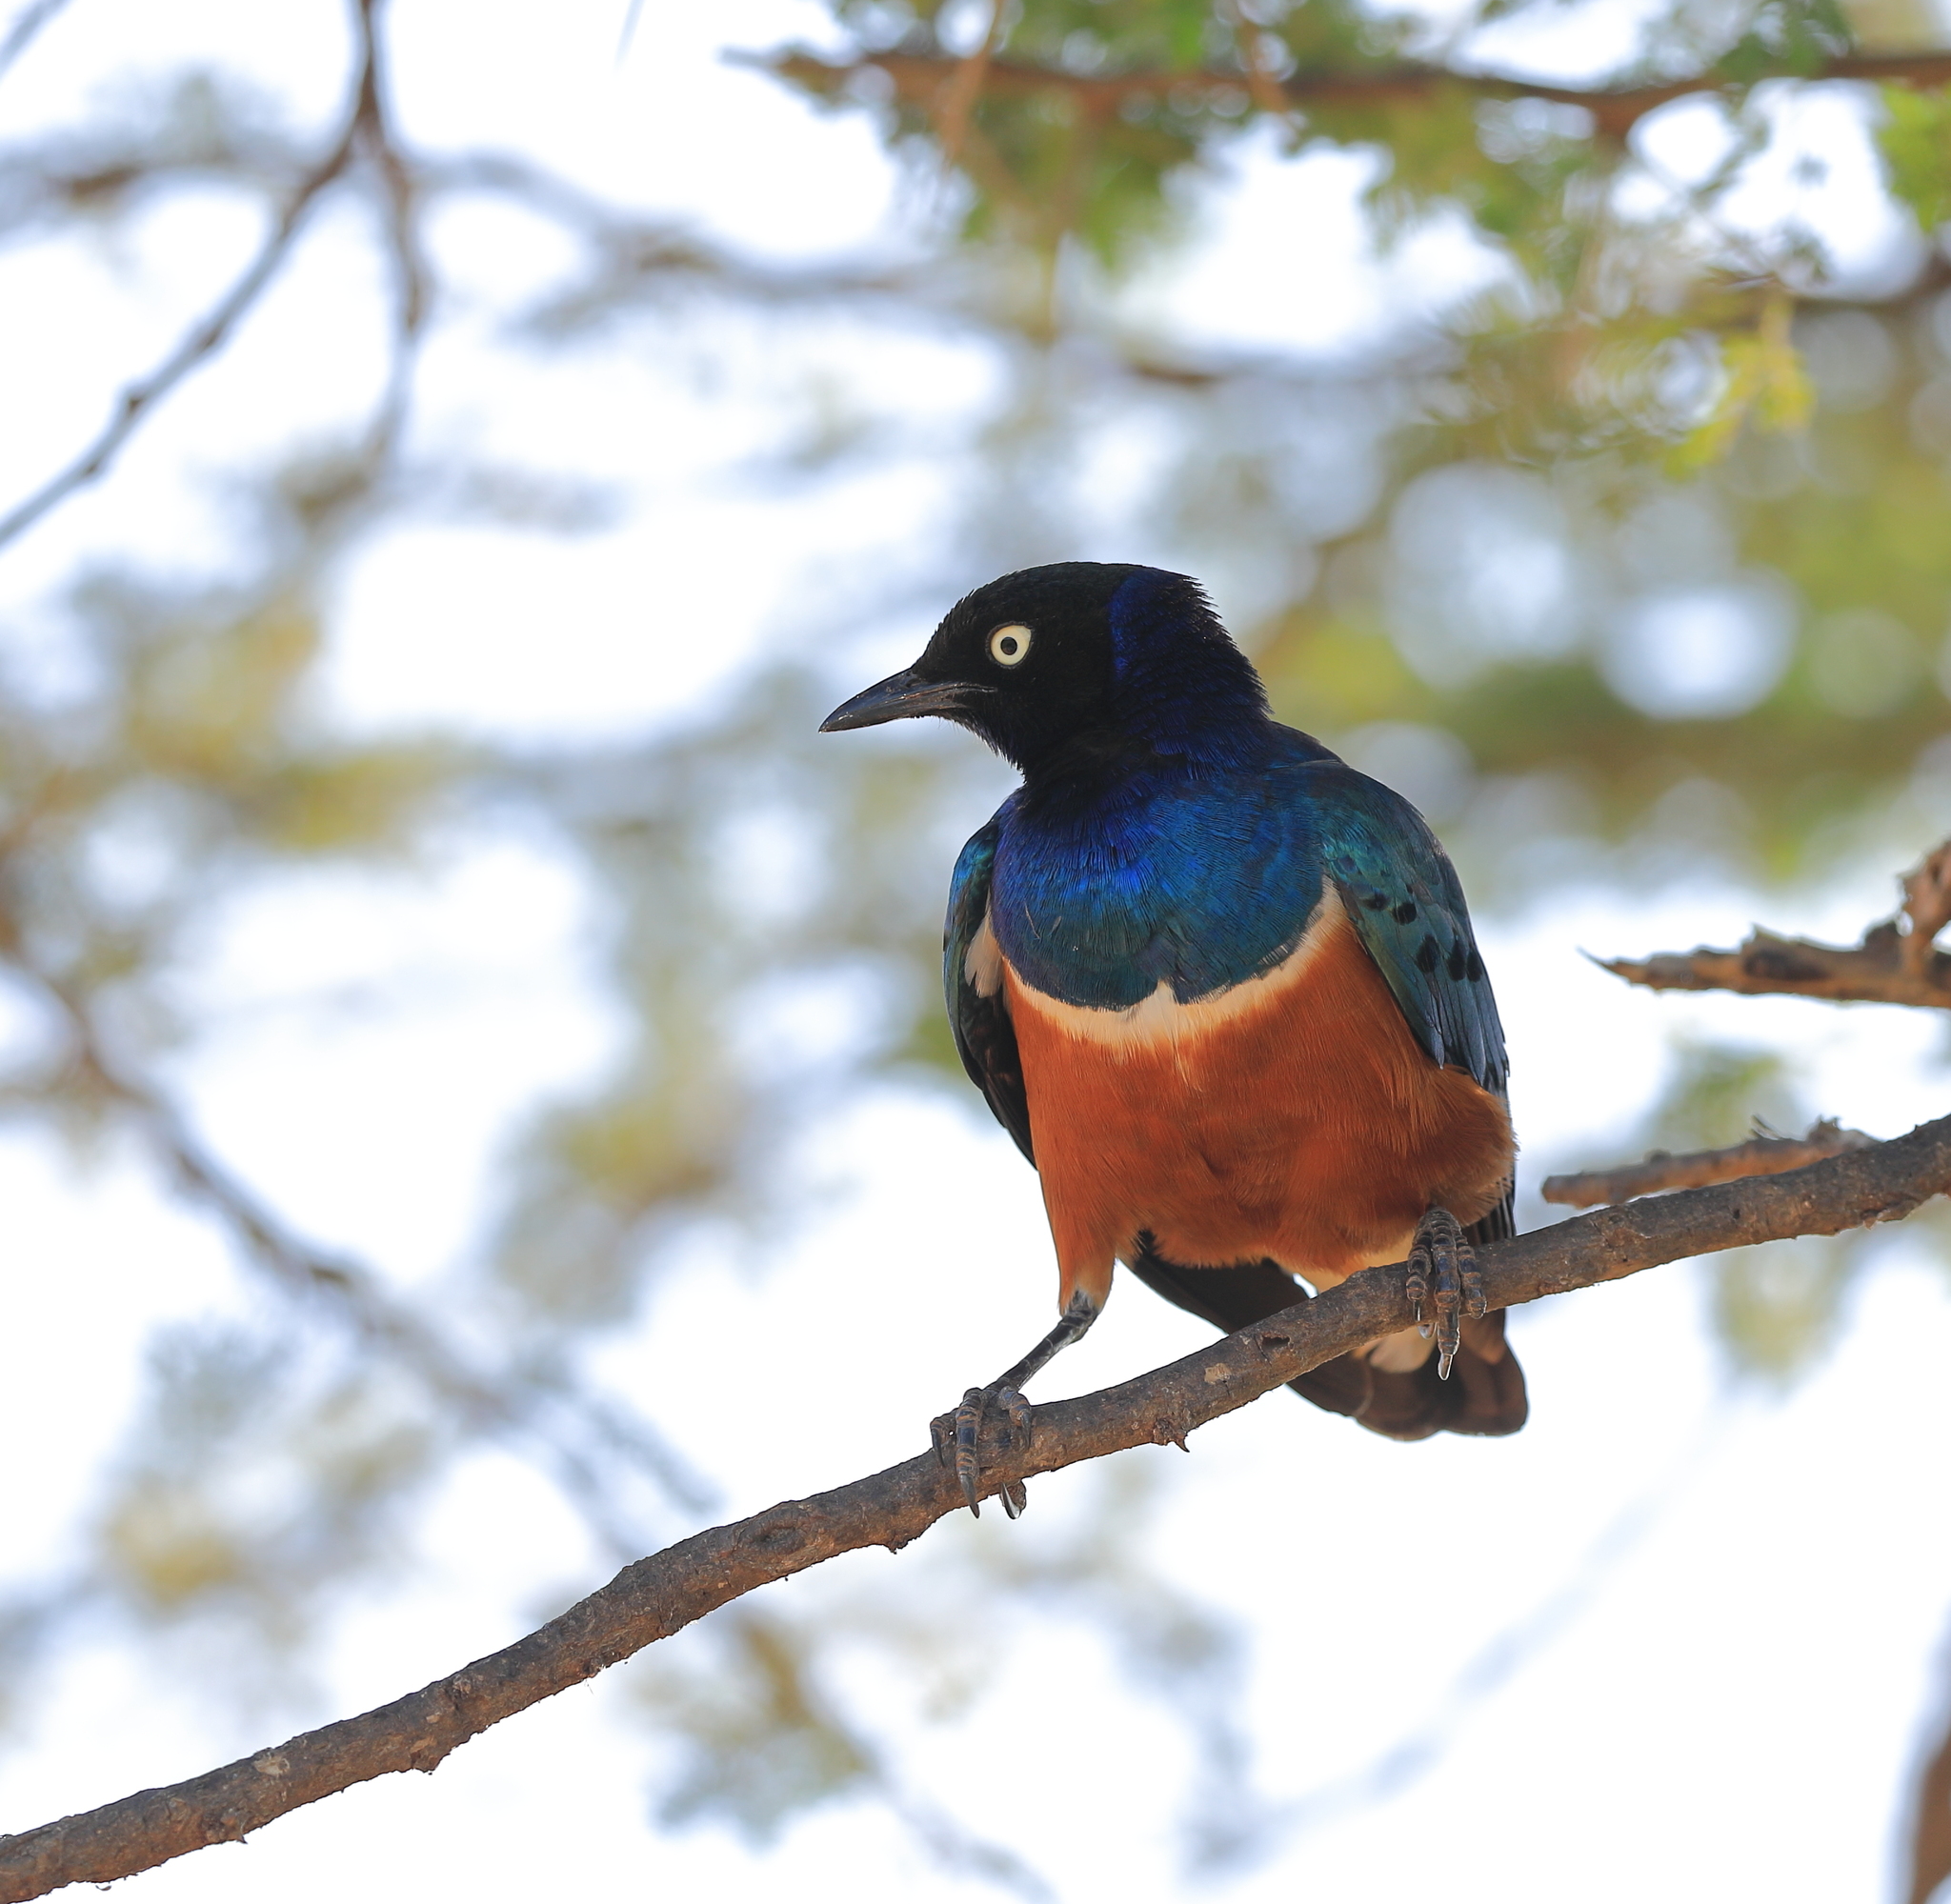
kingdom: Animalia
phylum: Chordata
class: Aves
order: Passeriformes
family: Sturnidae
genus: Lamprotornis
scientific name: Lamprotornis superbus
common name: Superb starling
